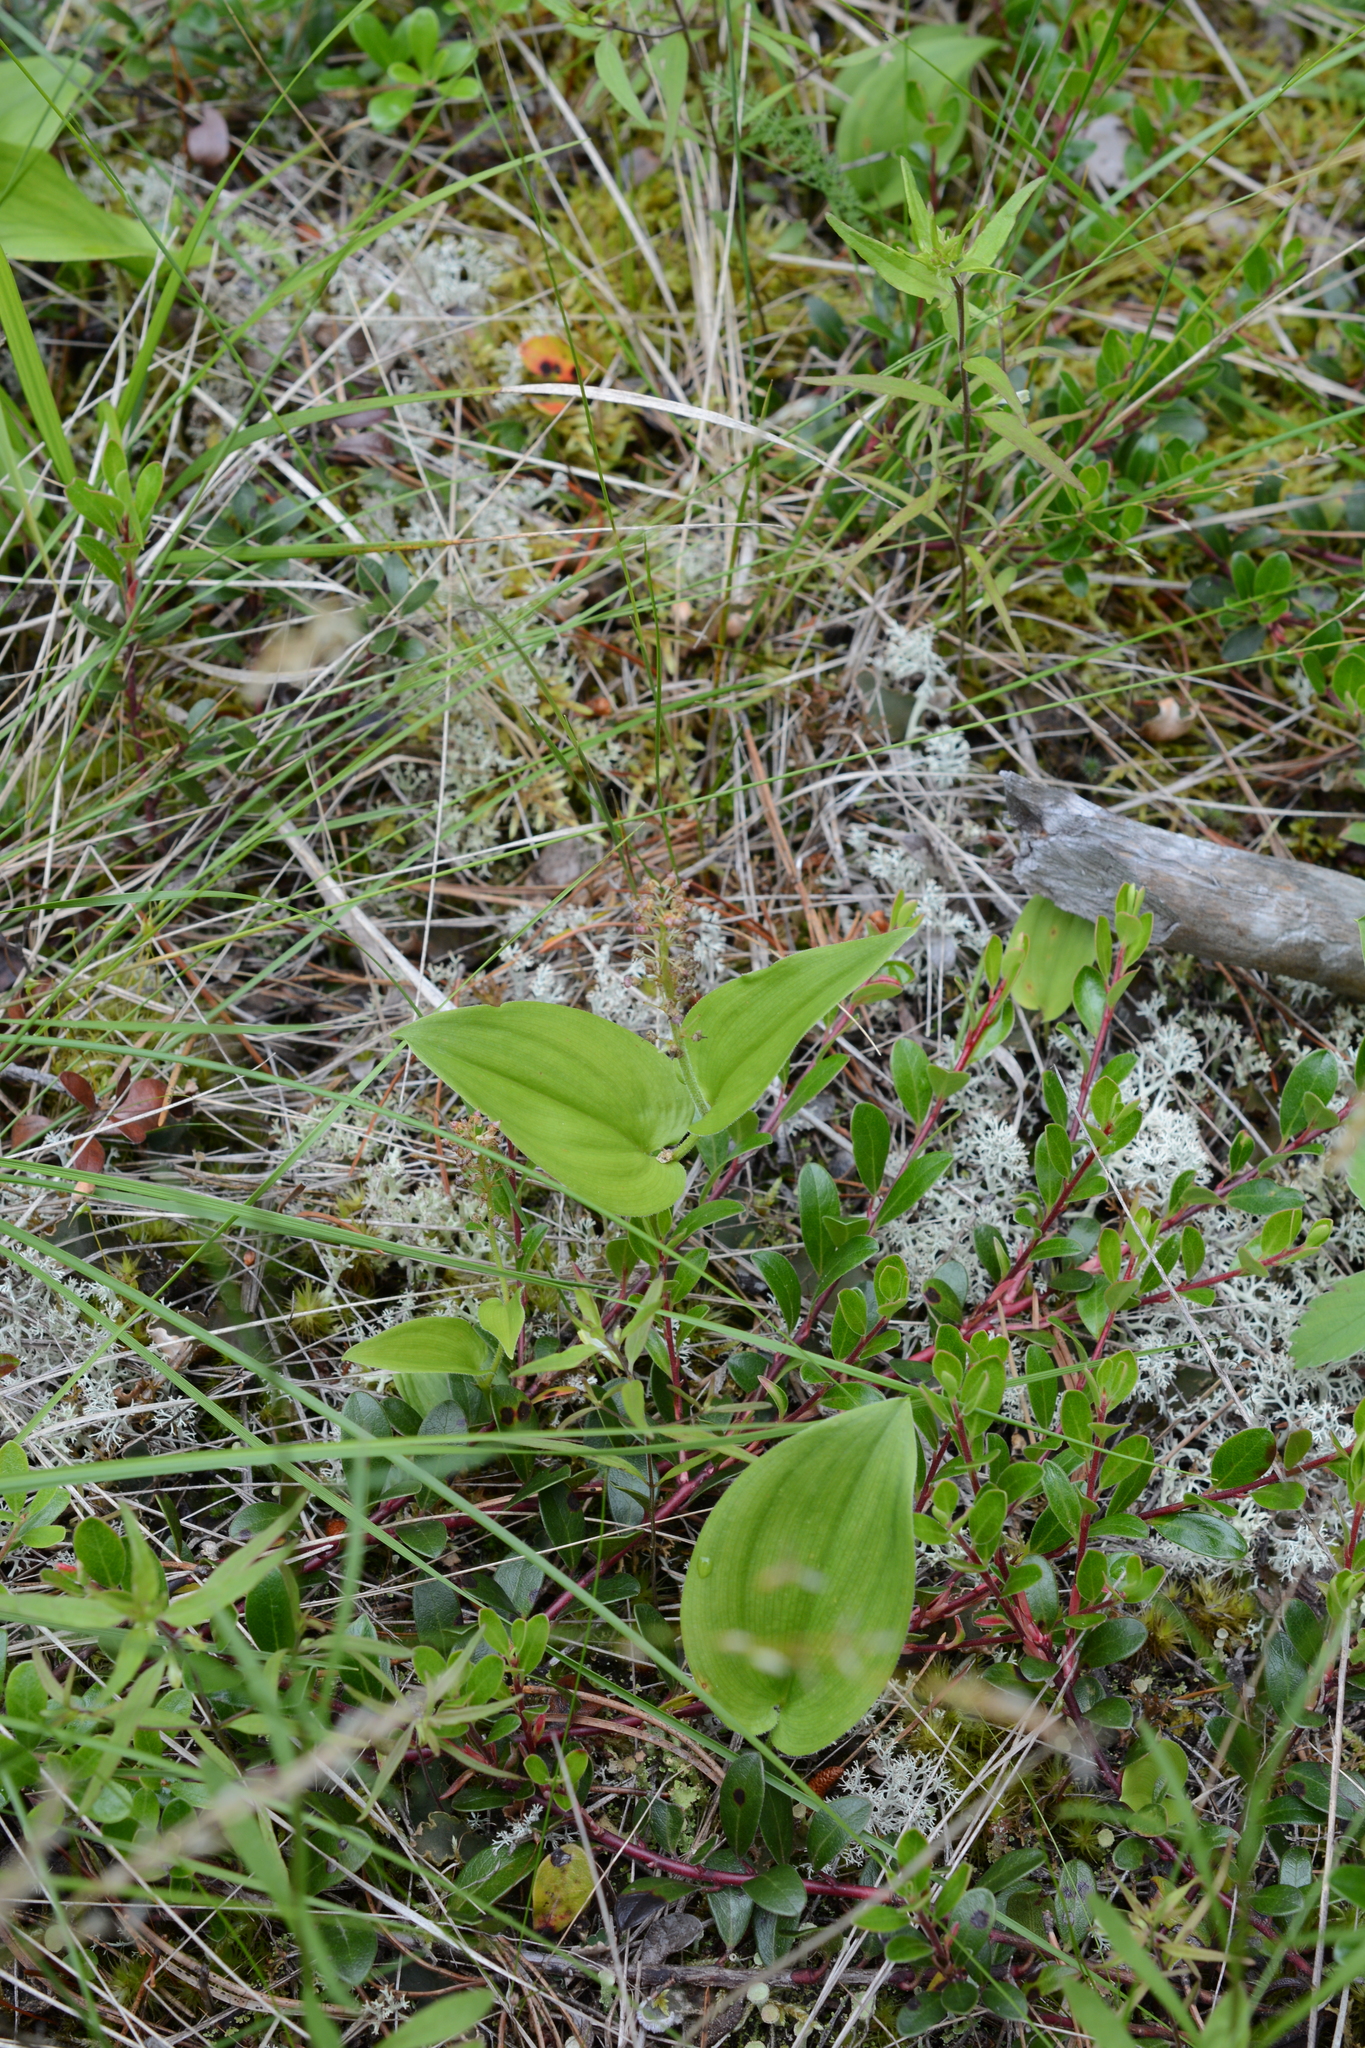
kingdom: Plantae
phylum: Tracheophyta
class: Liliopsida
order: Asparagales
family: Asparagaceae
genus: Maianthemum
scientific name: Maianthemum canadense
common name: False lily-of-the-valley
